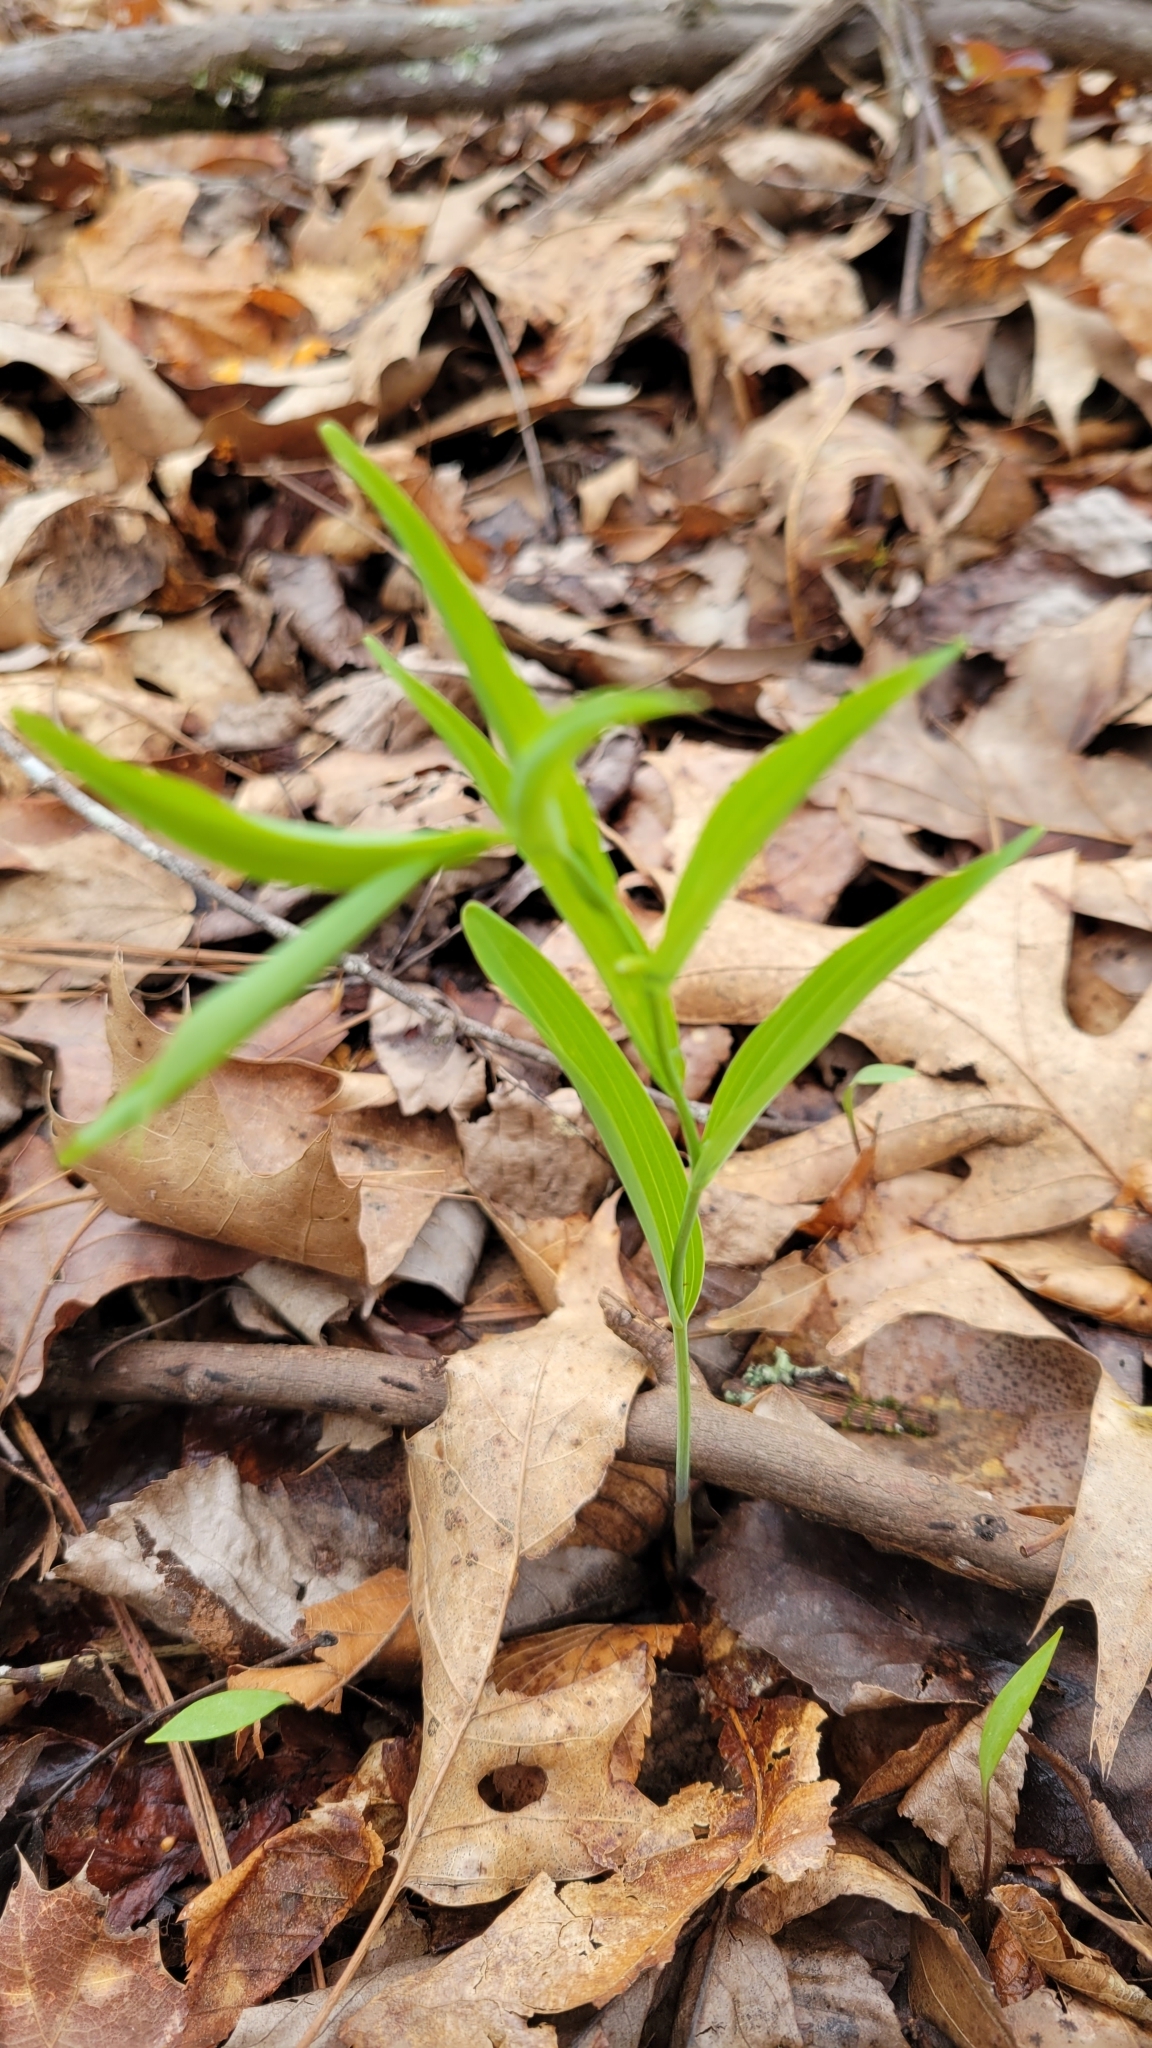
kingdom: Plantae
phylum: Tracheophyta
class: Liliopsida
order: Asparagales
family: Asparagaceae
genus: Polygonatum
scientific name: Polygonatum biflorum
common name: American solomon's-seal
